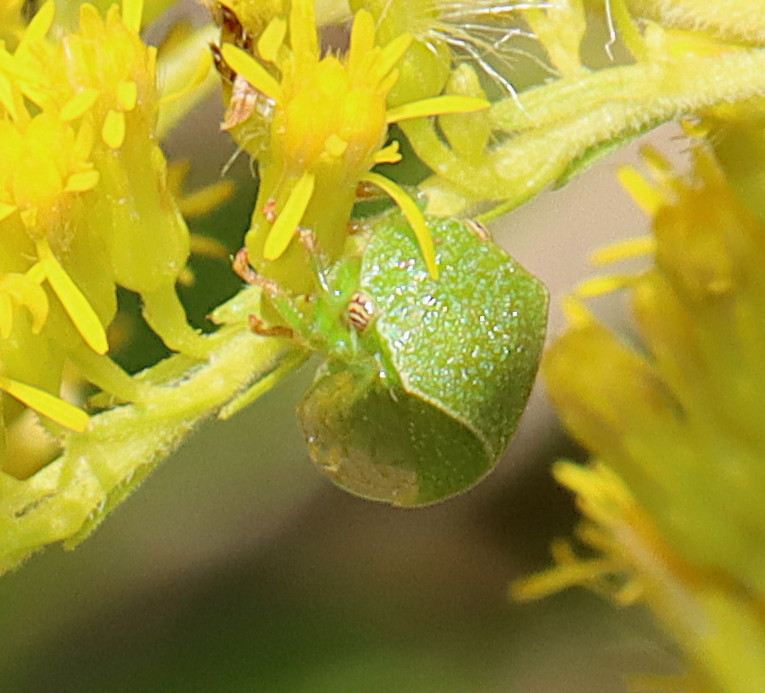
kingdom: Animalia
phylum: Arthropoda
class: Insecta
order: Hemiptera
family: Membracidae
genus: Spissistilus
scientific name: Spissistilus festina
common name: Membracid bug
